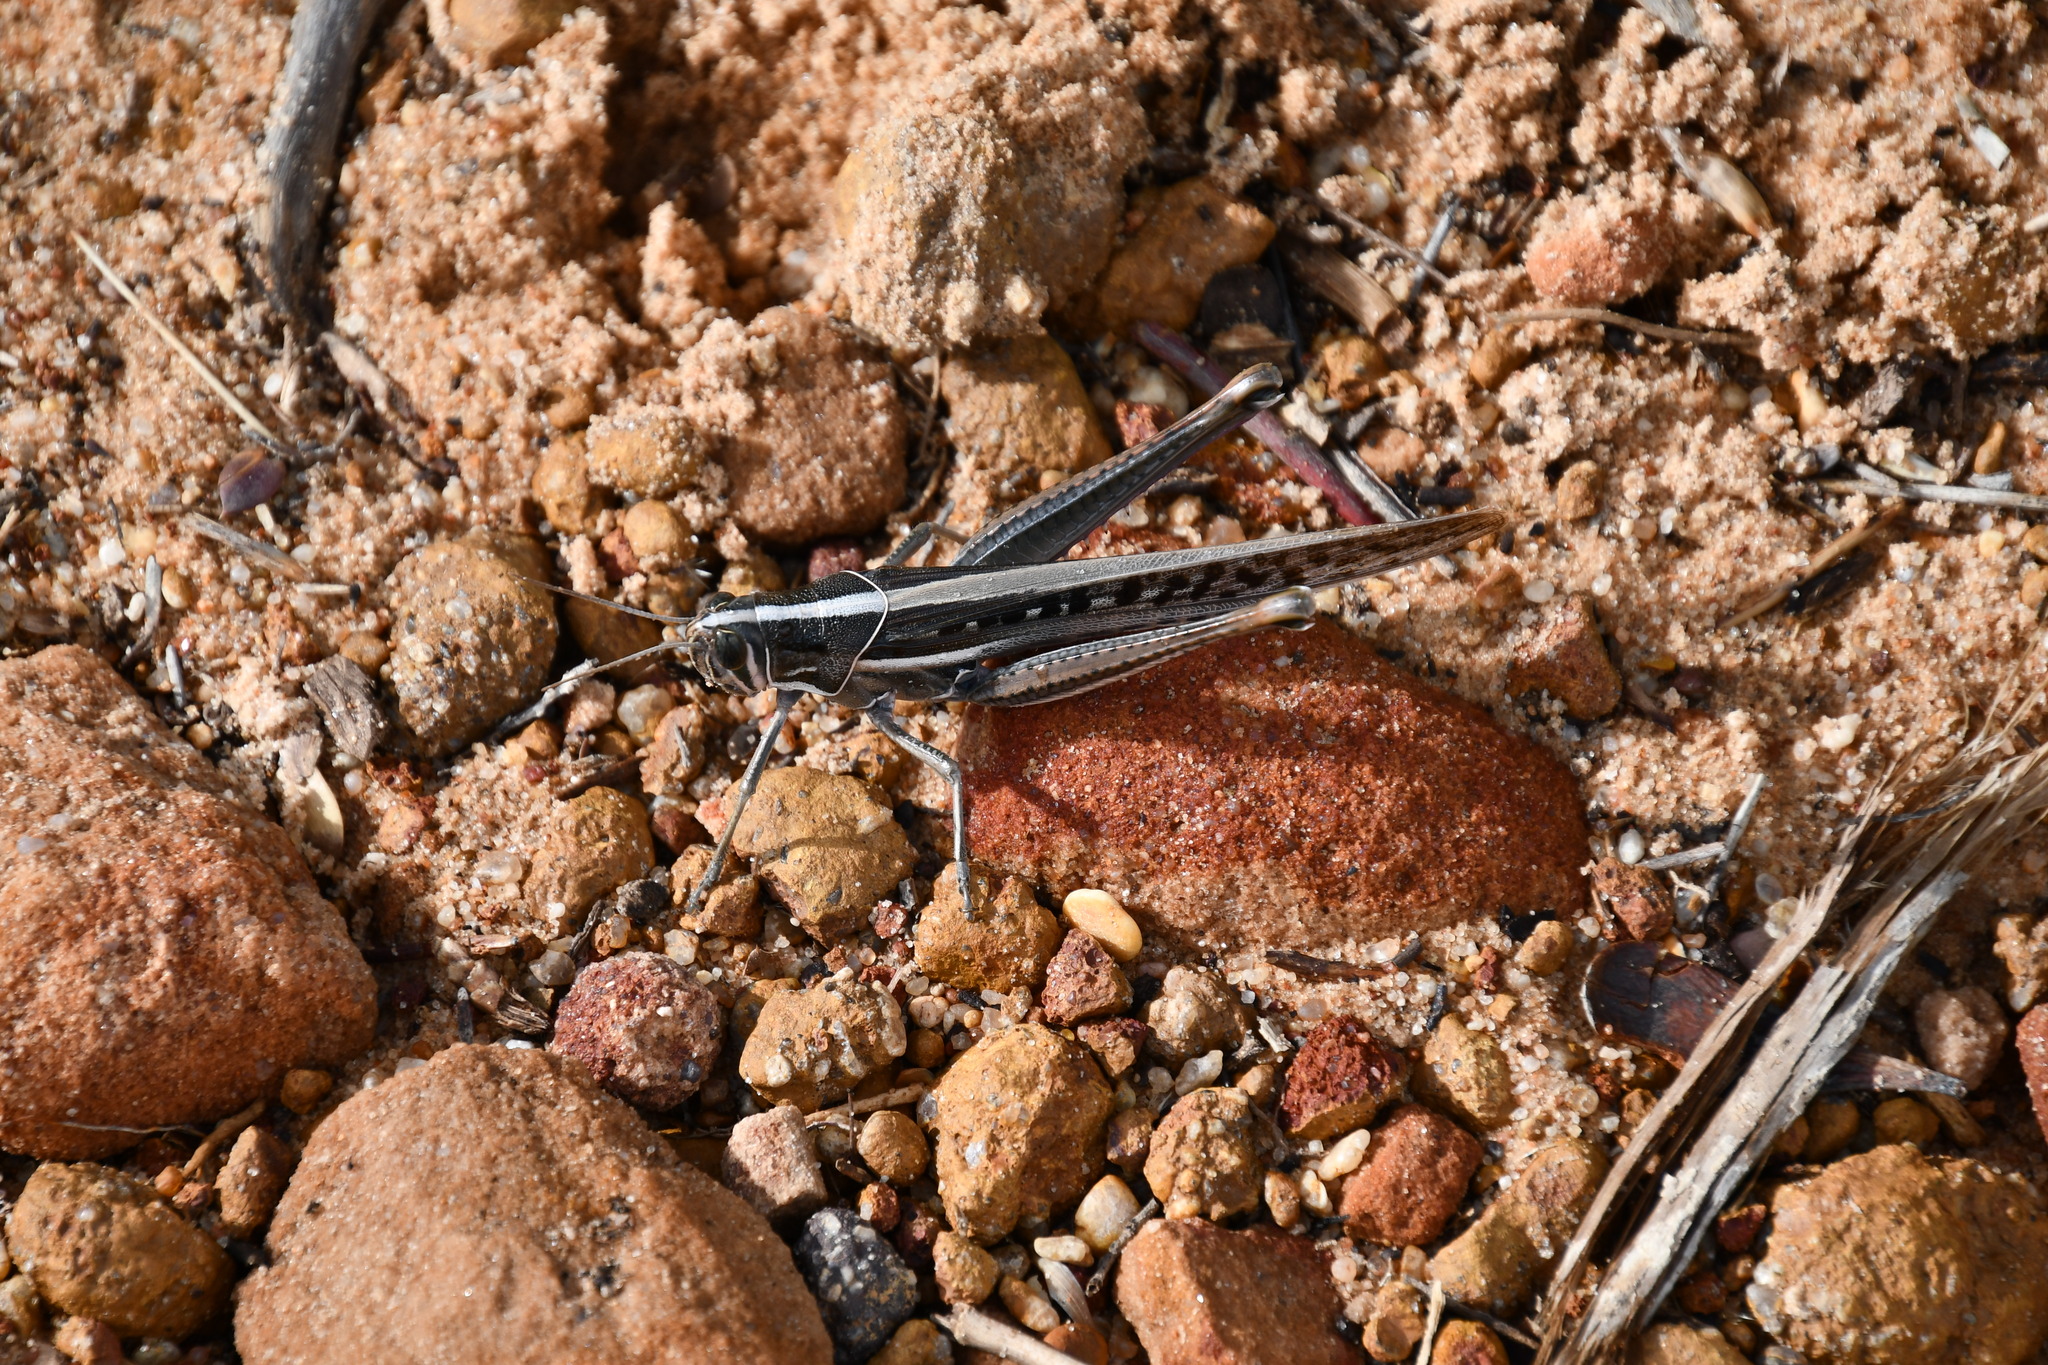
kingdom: Animalia
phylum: Arthropoda
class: Insecta
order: Orthoptera
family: Acrididae
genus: Austracris
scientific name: Austracris guttulosa
